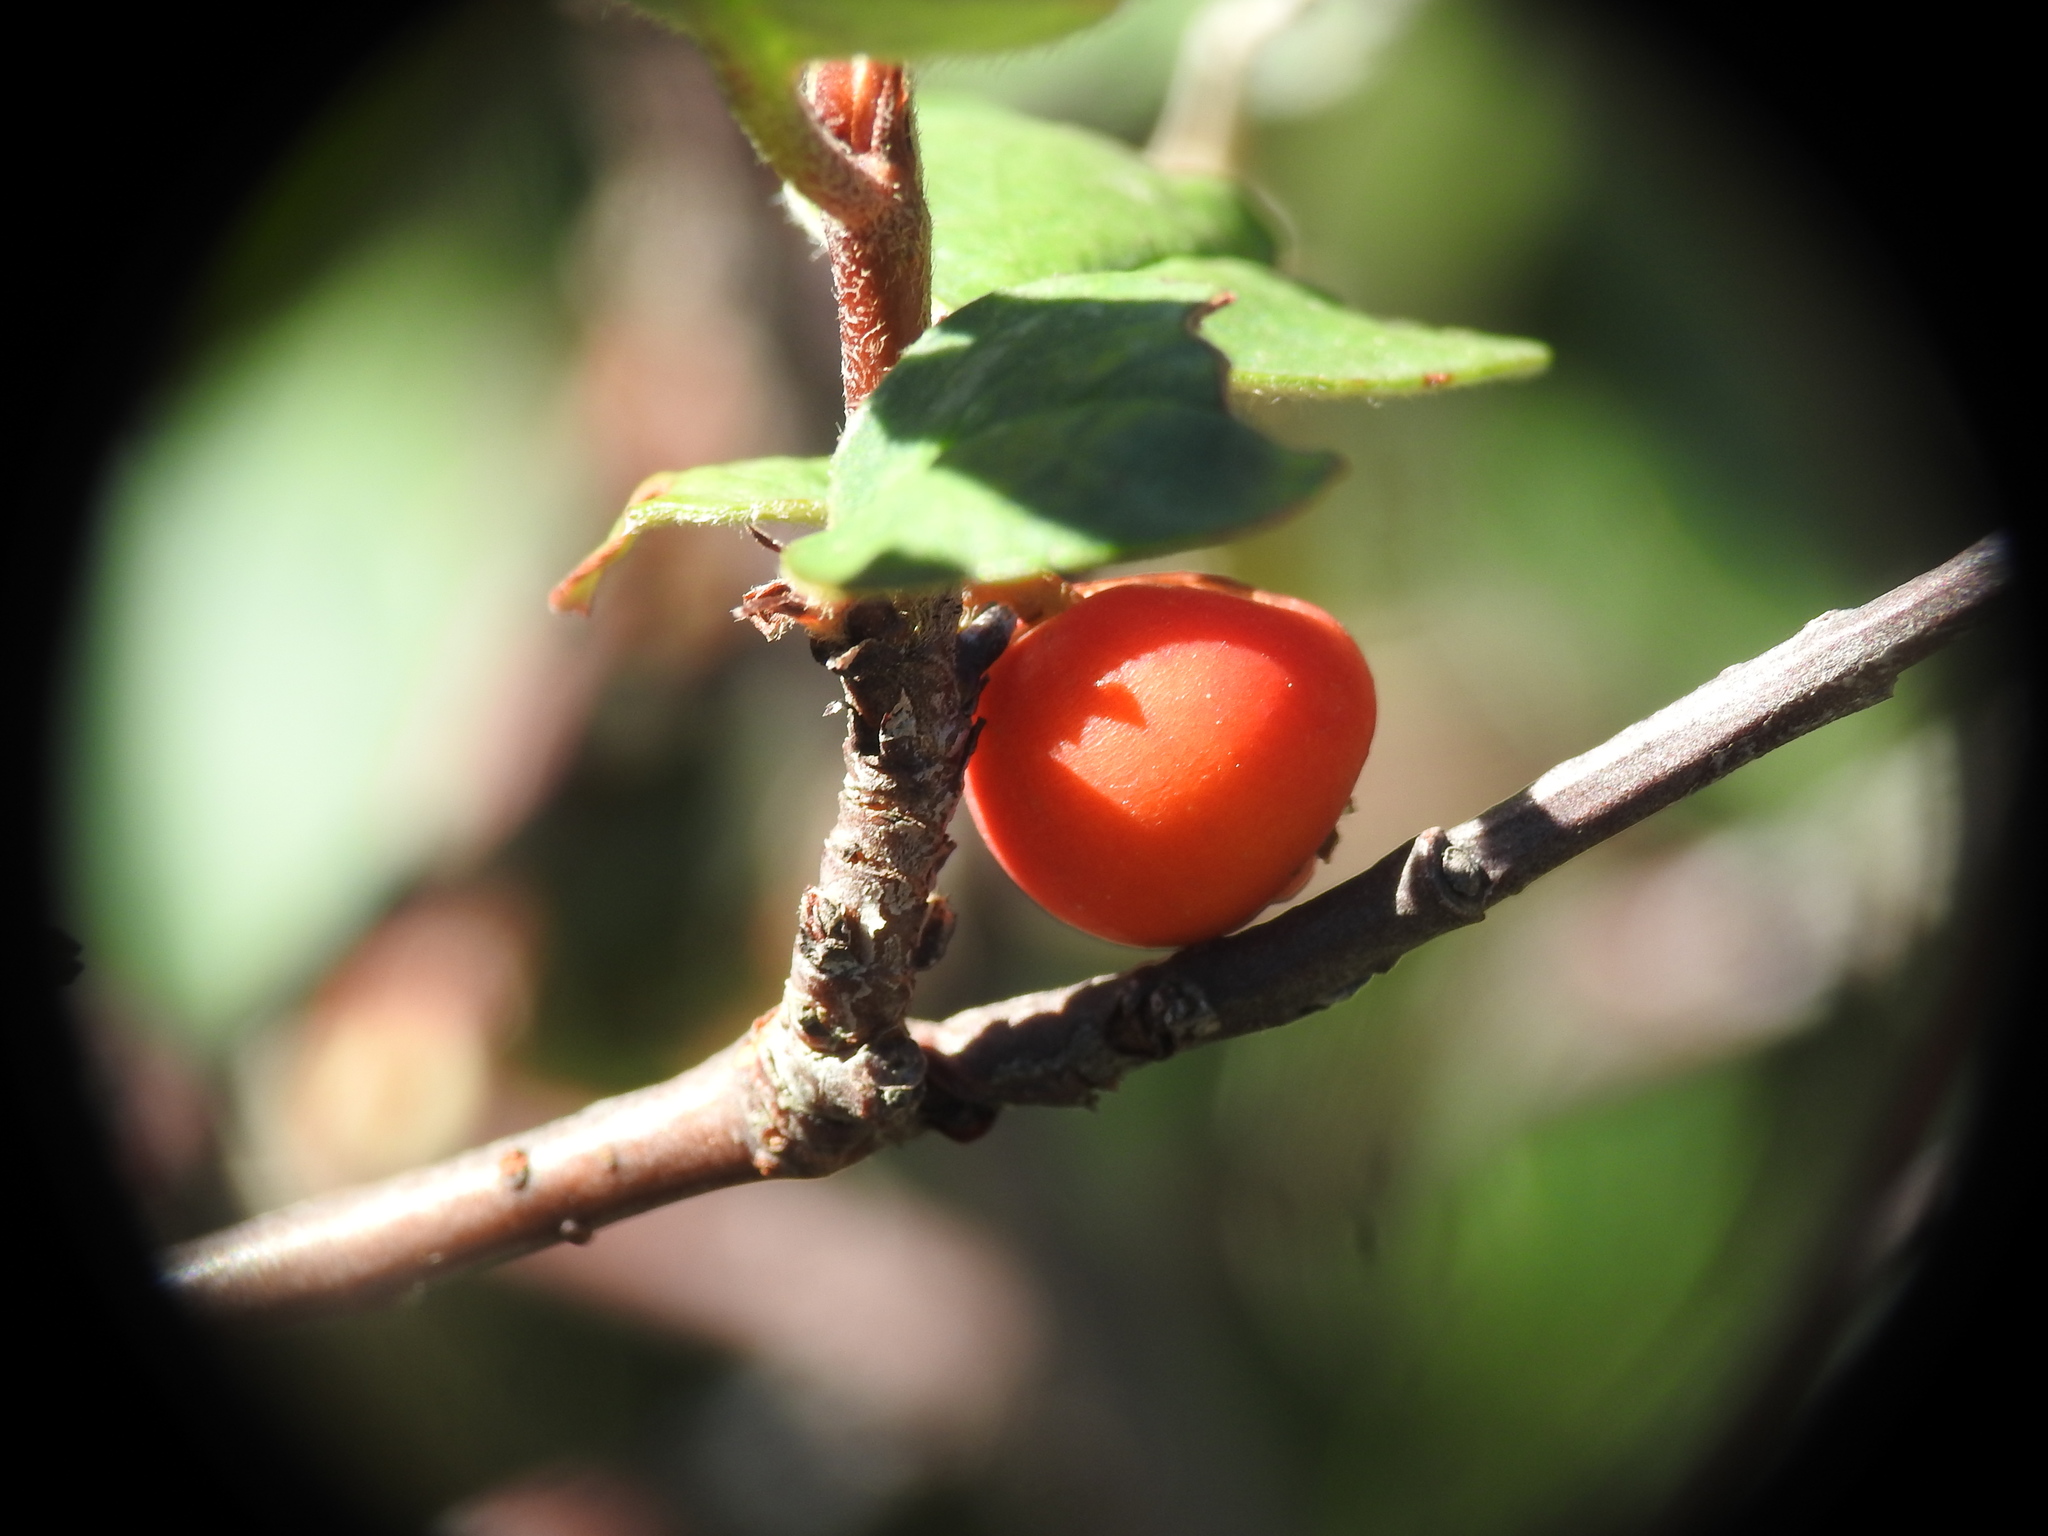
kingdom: Plantae
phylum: Tracheophyta
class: Magnoliopsida
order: Rosales
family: Rosaceae
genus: Cotoneaster
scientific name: Cotoneaster integerrimus
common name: Wild cotoneaster
